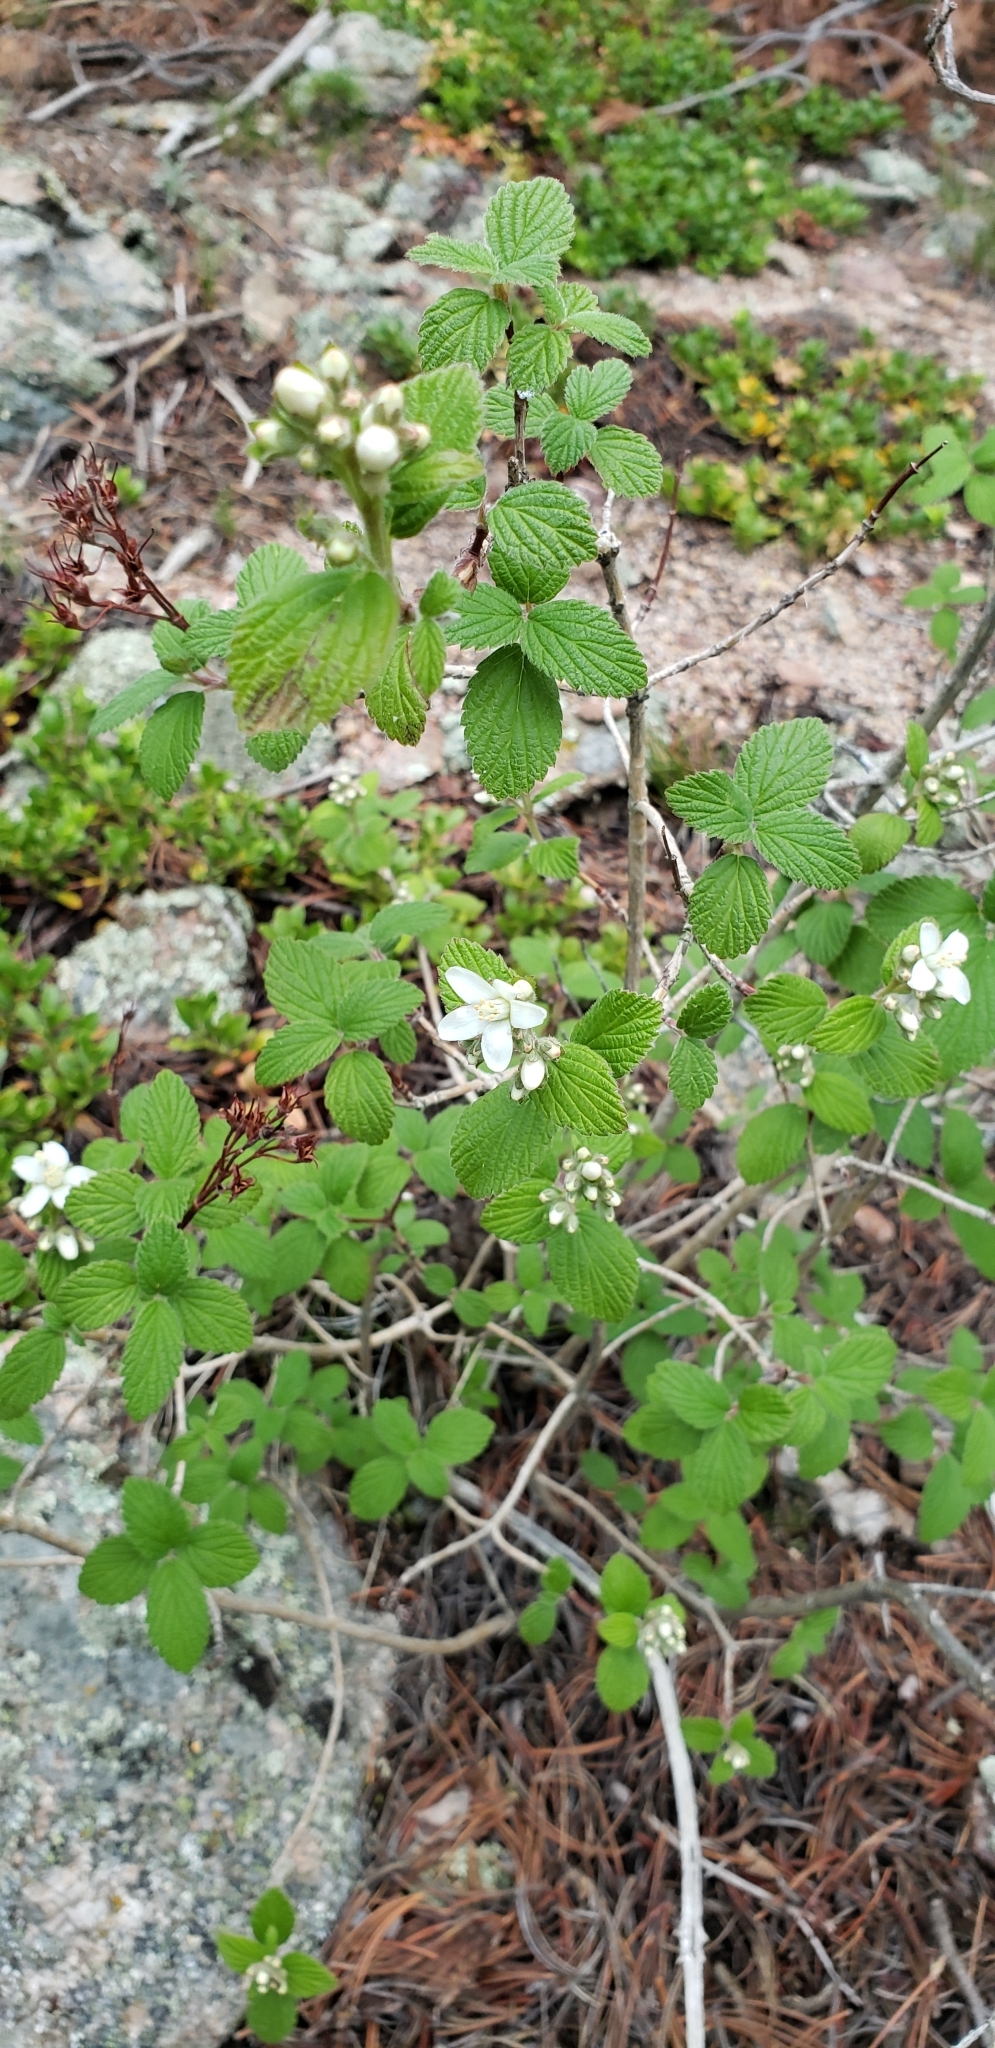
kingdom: Plantae
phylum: Tracheophyta
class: Magnoliopsida
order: Cornales
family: Hydrangeaceae
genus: Jamesia
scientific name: Jamesia americana
